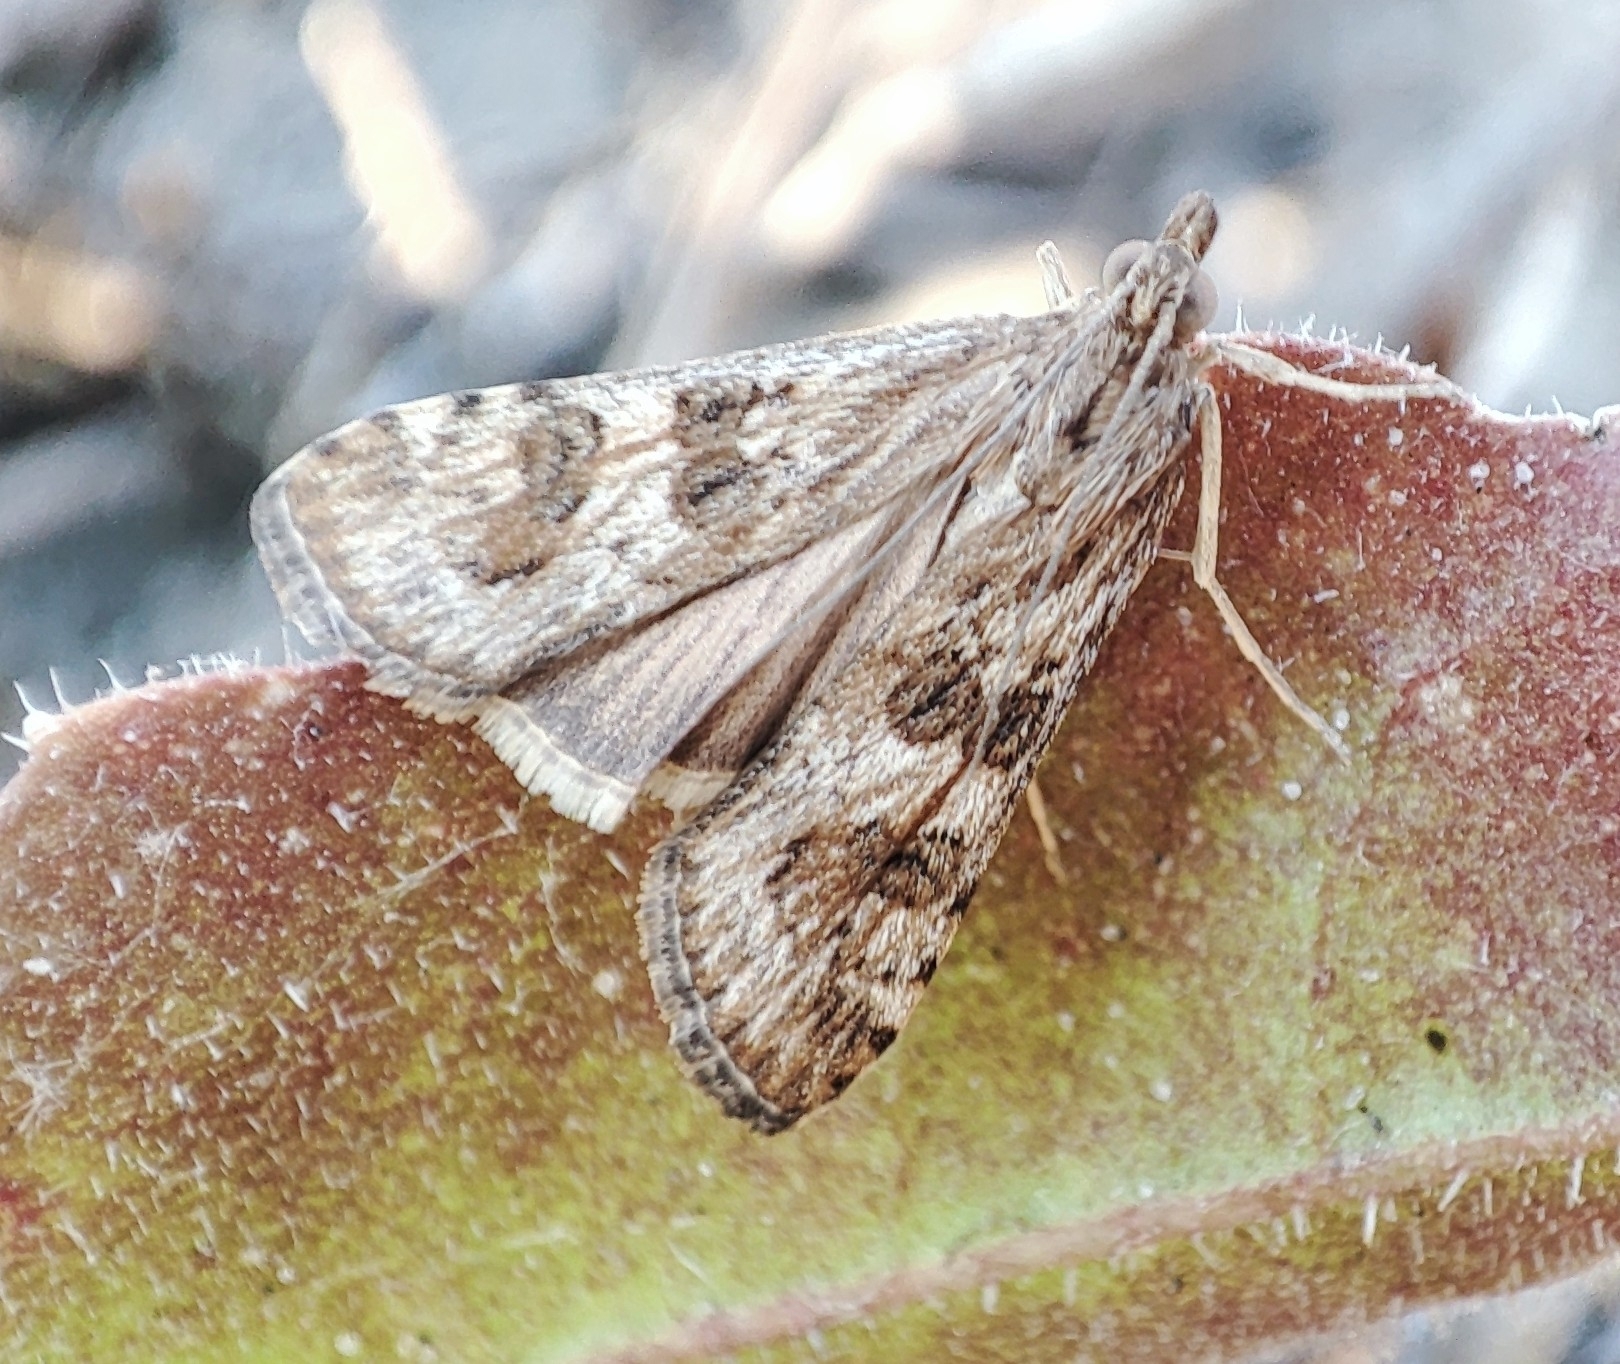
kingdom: Animalia
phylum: Arthropoda
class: Insecta
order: Lepidoptera
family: Crambidae
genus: Nomophila
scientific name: Nomophila noctuella
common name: Rush veneer
